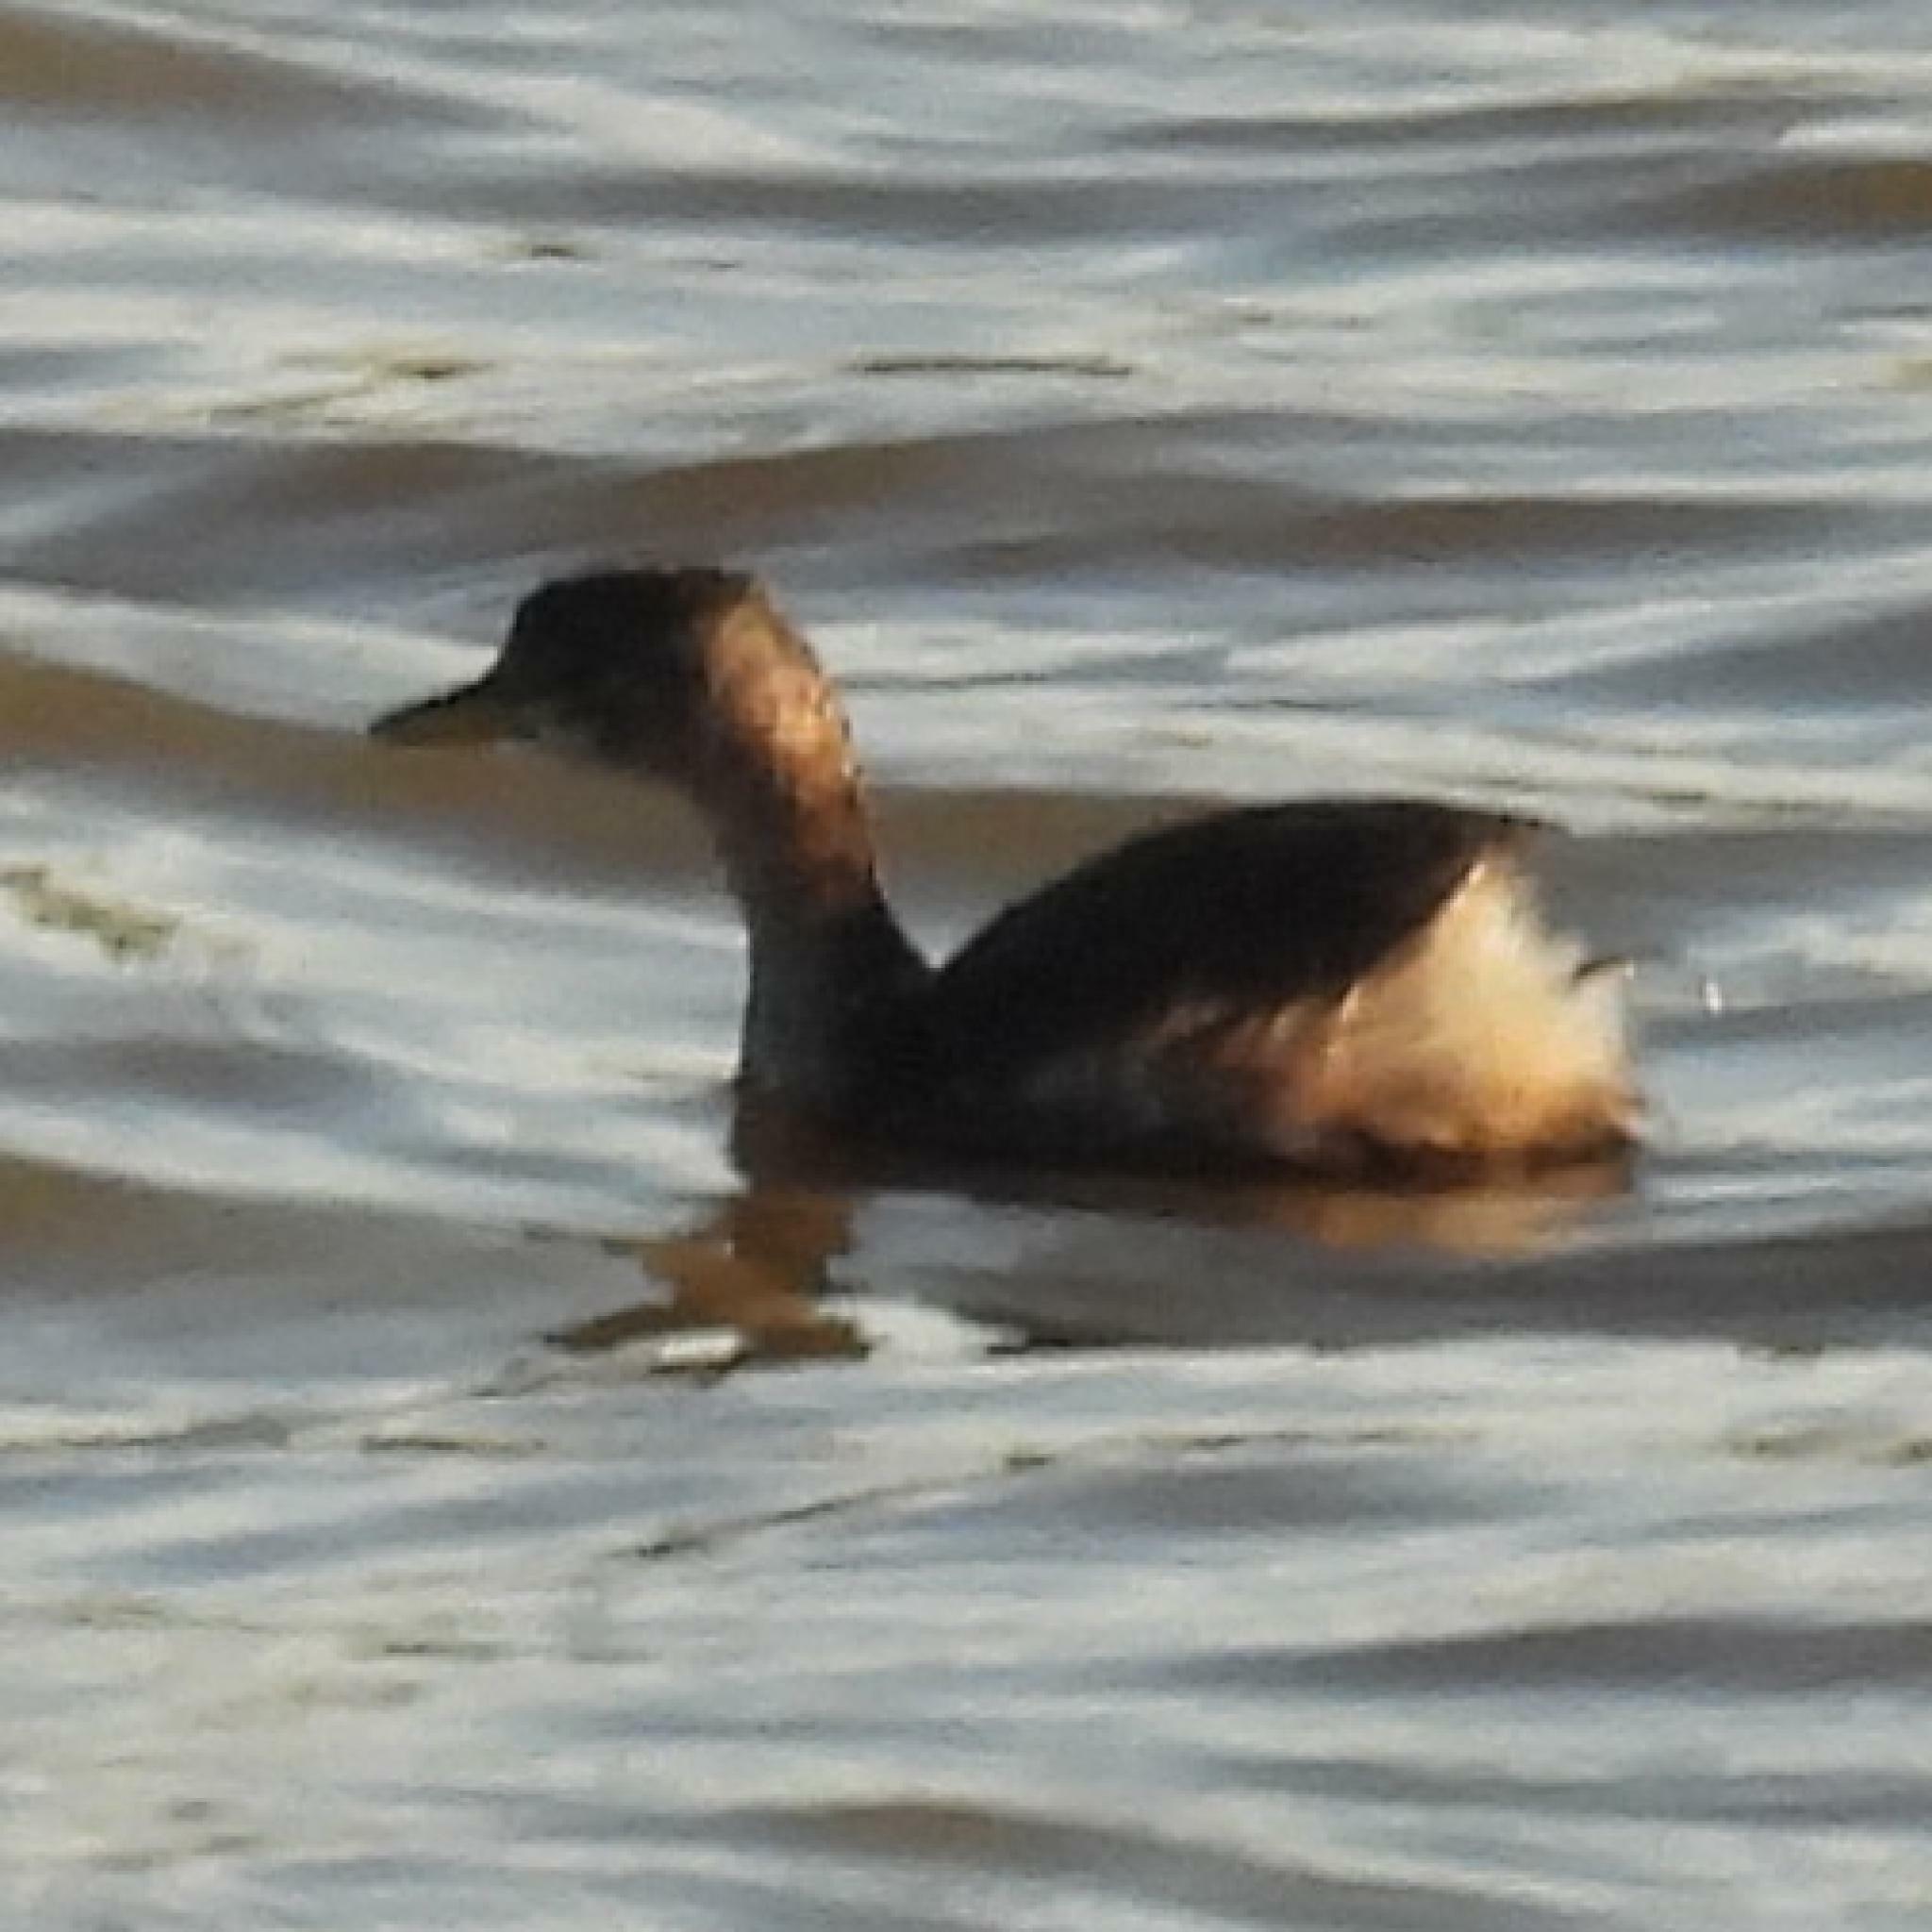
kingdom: Animalia
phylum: Chordata
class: Aves
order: Podicipediformes
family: Podicipedidae
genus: Tachybaptus
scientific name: Tachybaptus ruficollis
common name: Little grebe
